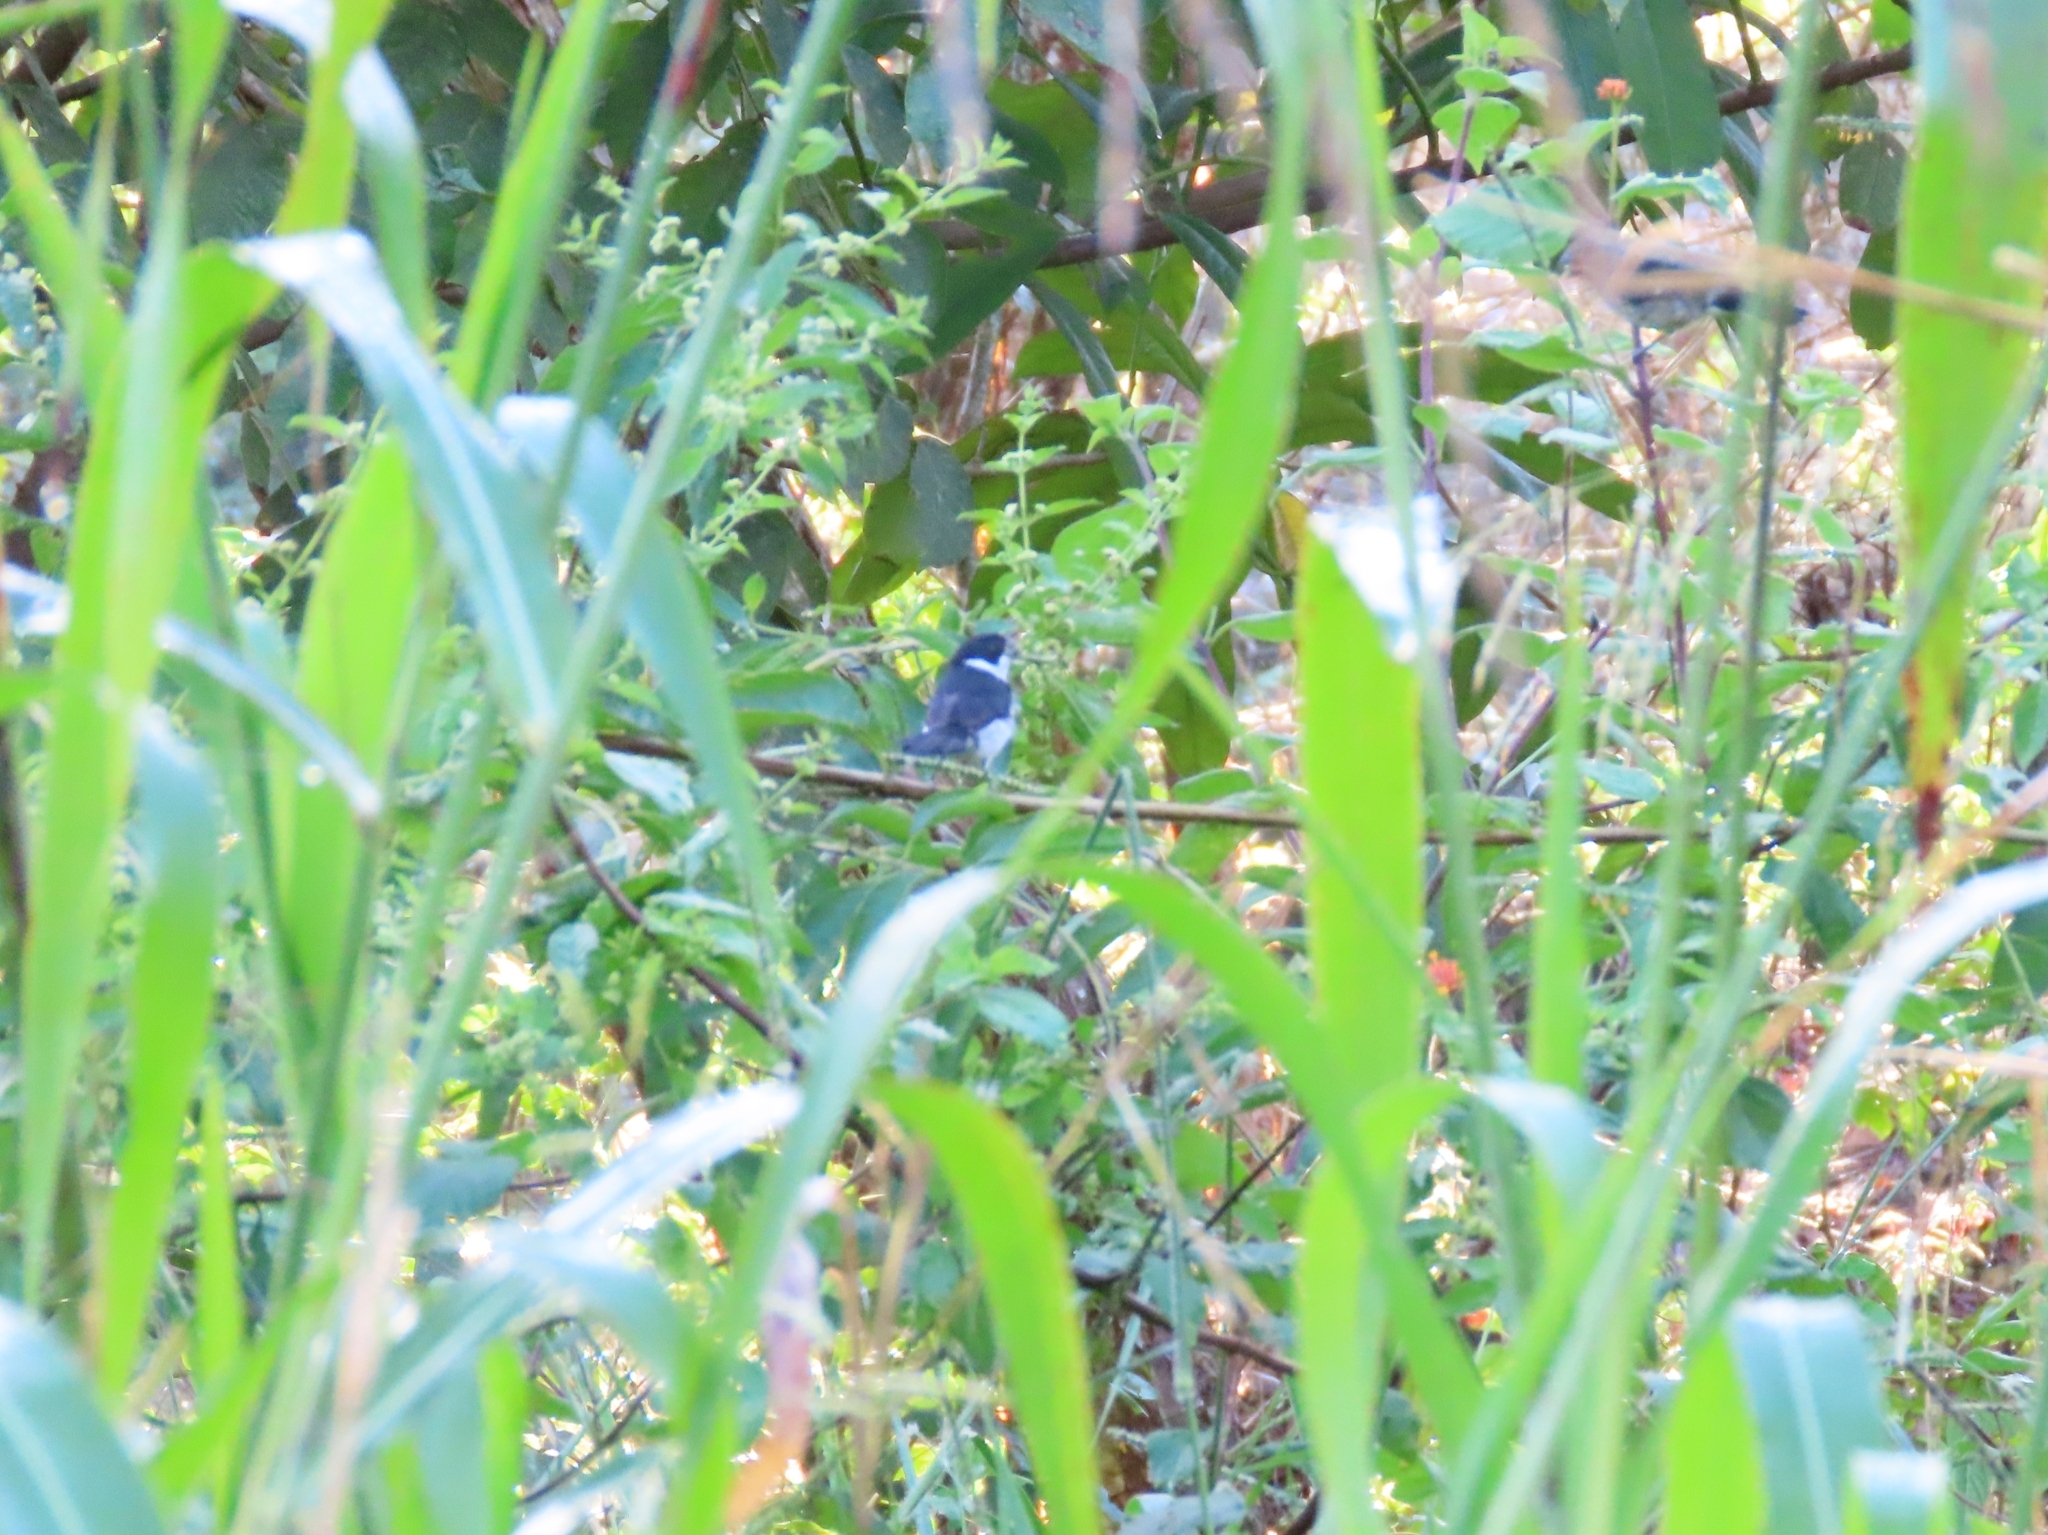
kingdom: Animalia
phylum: Chordata
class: Aves
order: Passeriformes
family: Thraupidae
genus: Sporophila
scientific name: Sporophila corvina
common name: Variable seedeater
